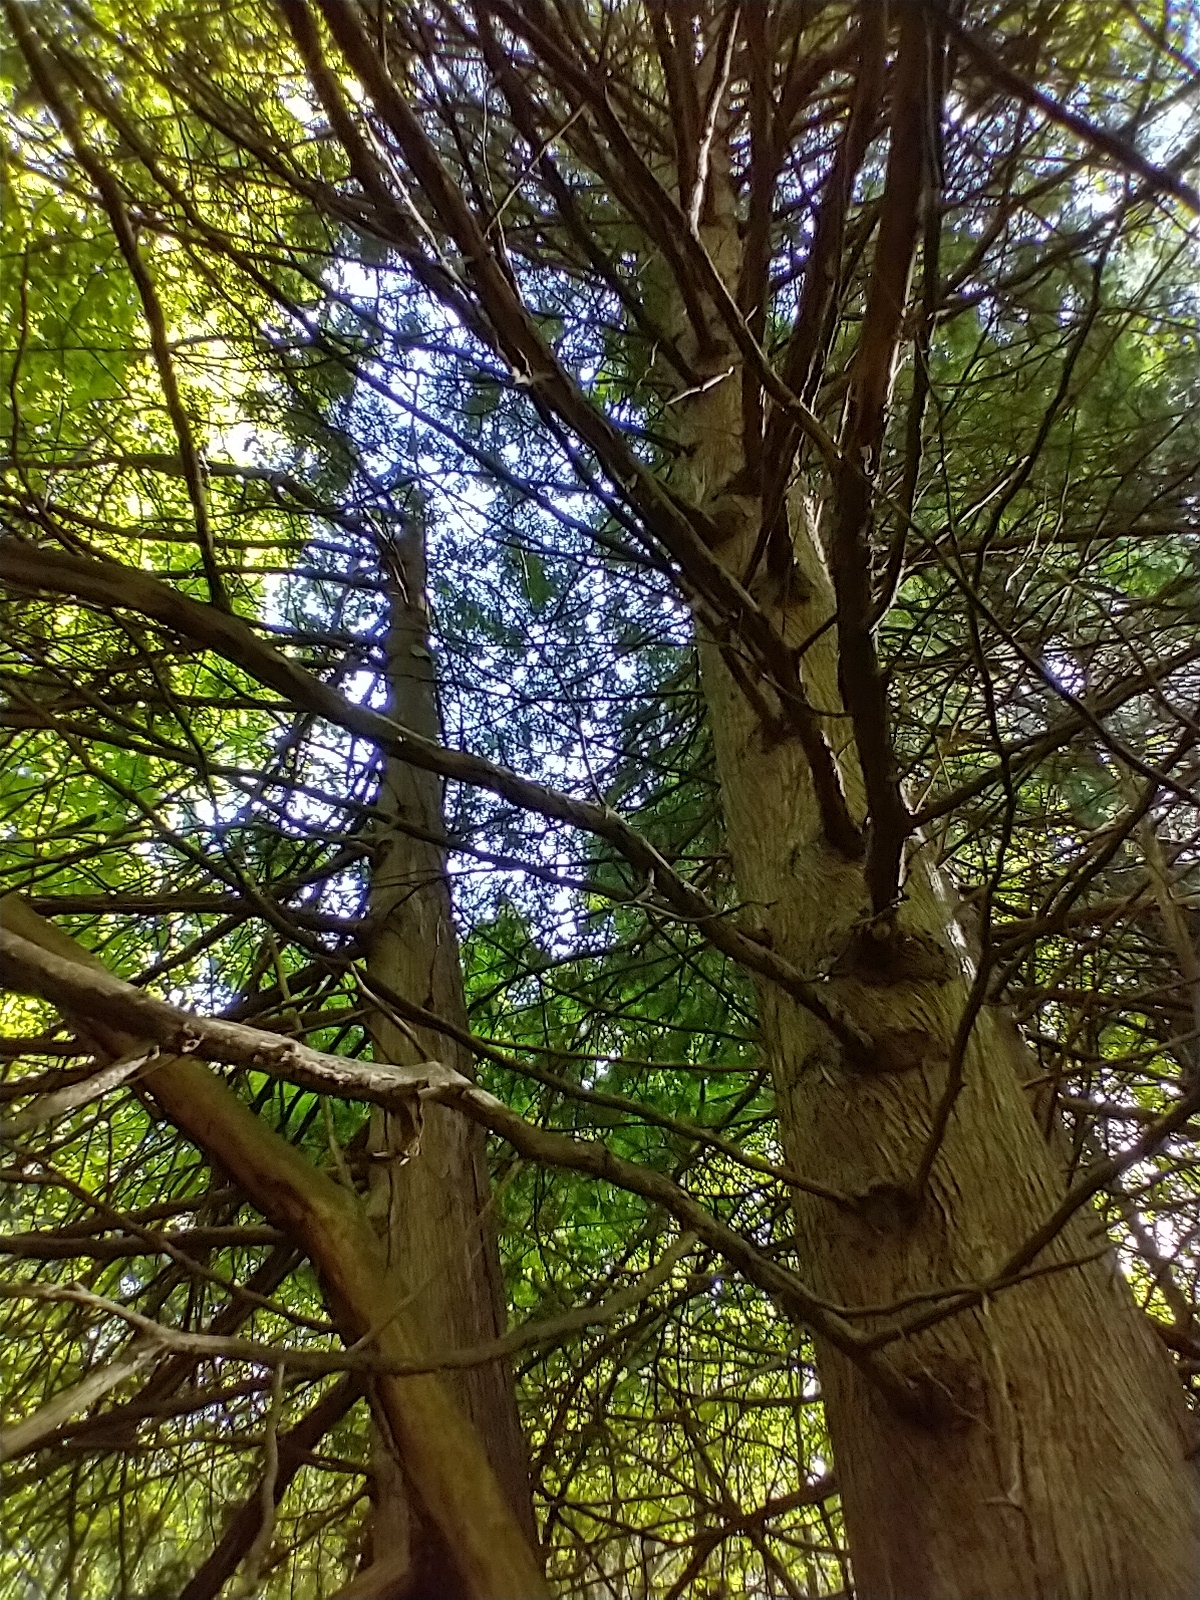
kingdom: Plantae
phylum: Tracheophyta
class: Pinopsida
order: Pinales
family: Cupressaceae
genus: Thuja
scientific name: Thuja occidentalis
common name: Northern white-cedar
